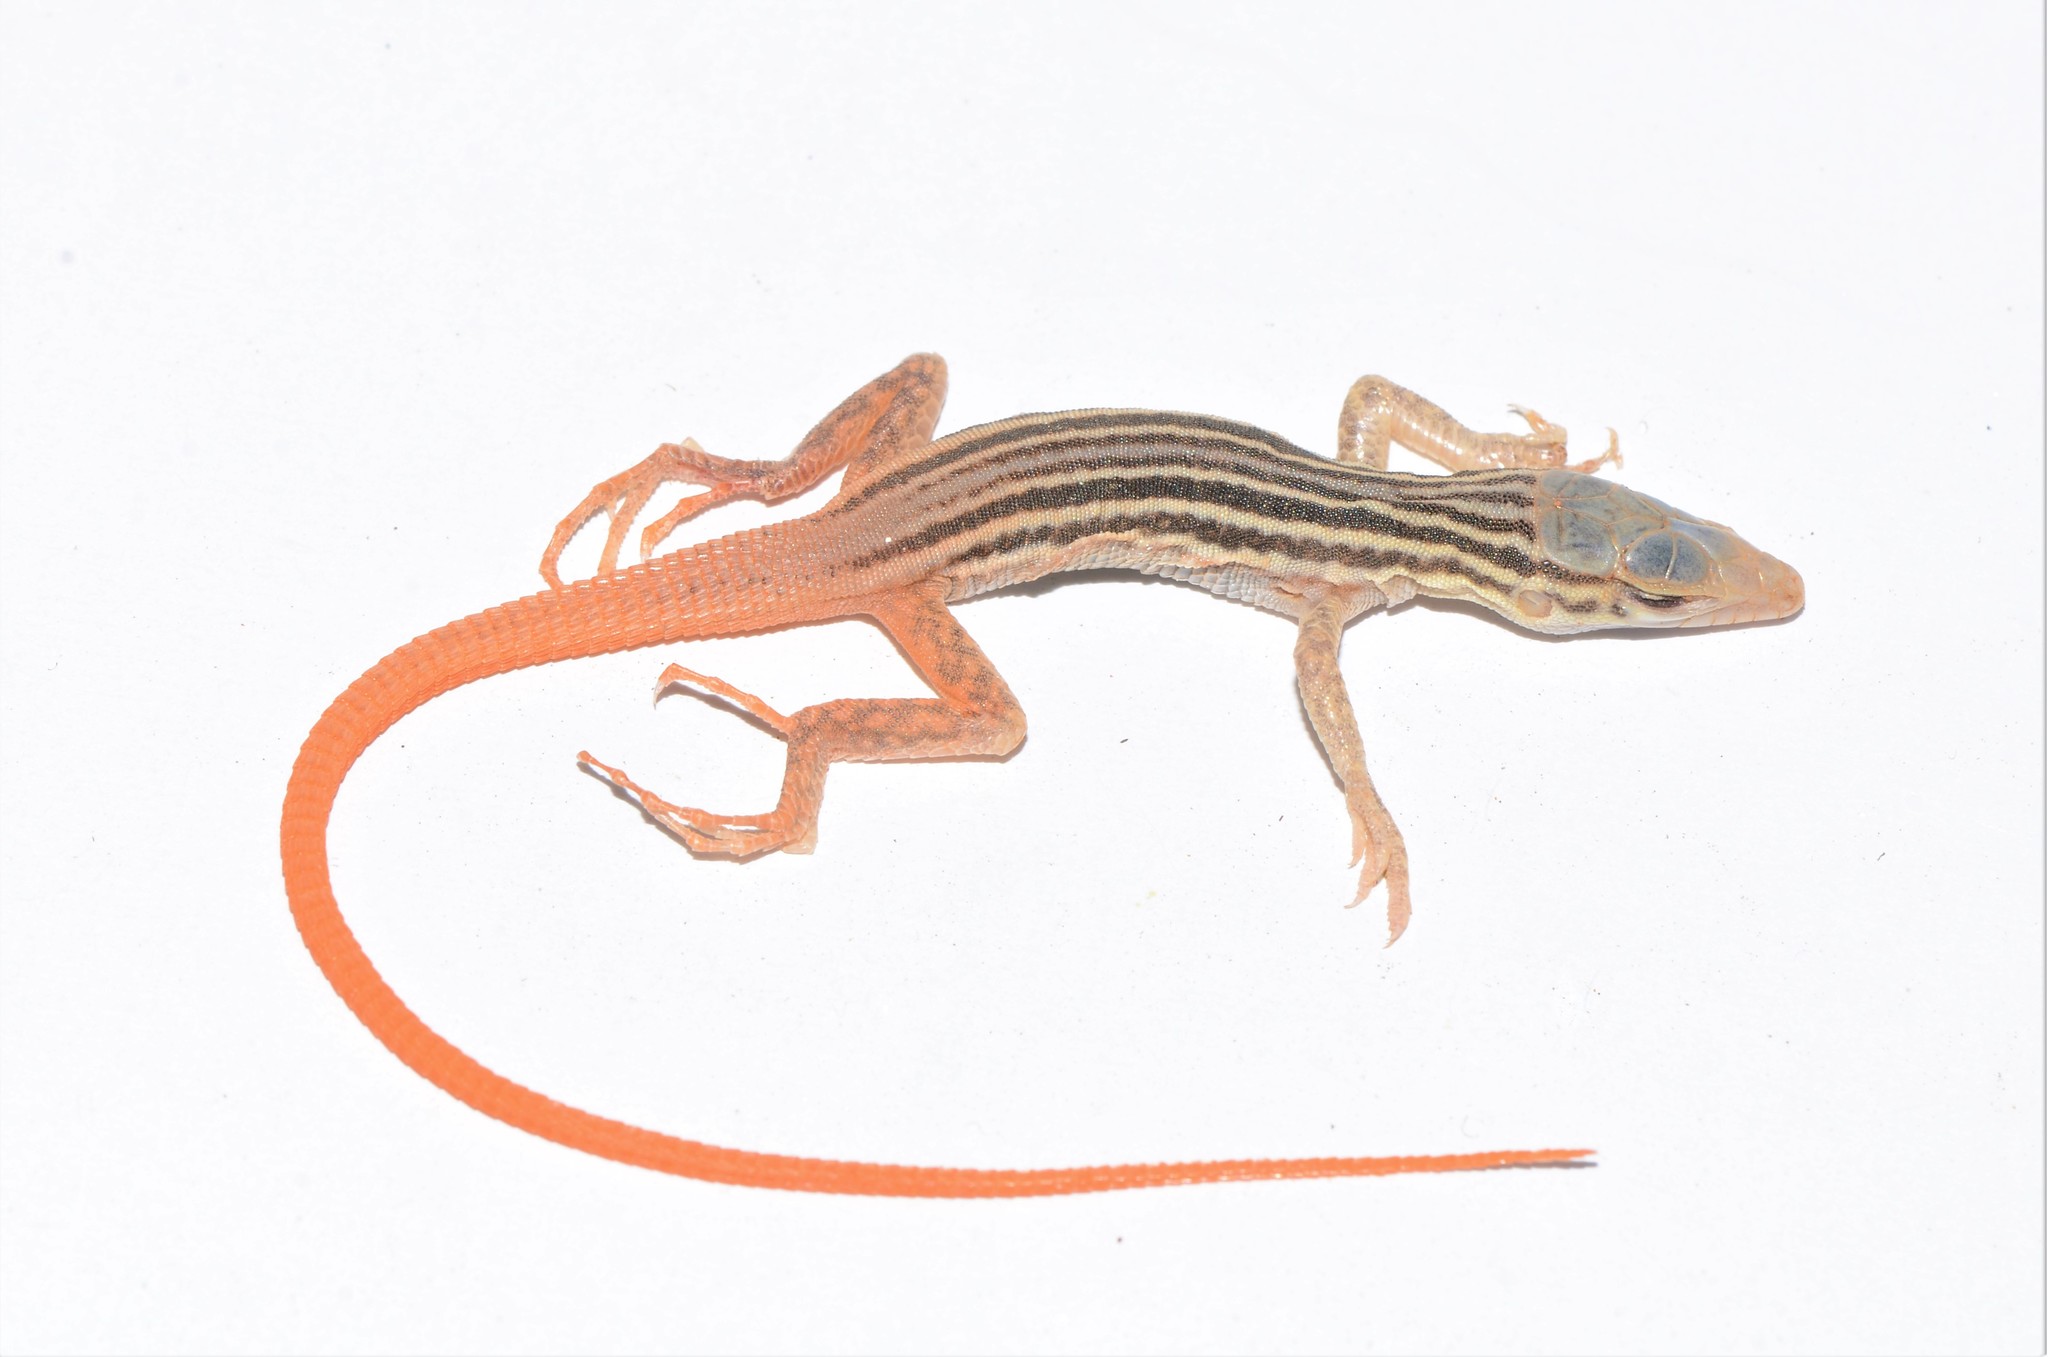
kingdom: Animalia
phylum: Chordata
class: Squamata
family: Lacertidae
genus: Pedioplanis
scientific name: Pedioplanis namaquensis
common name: Namaqua sand lizard
